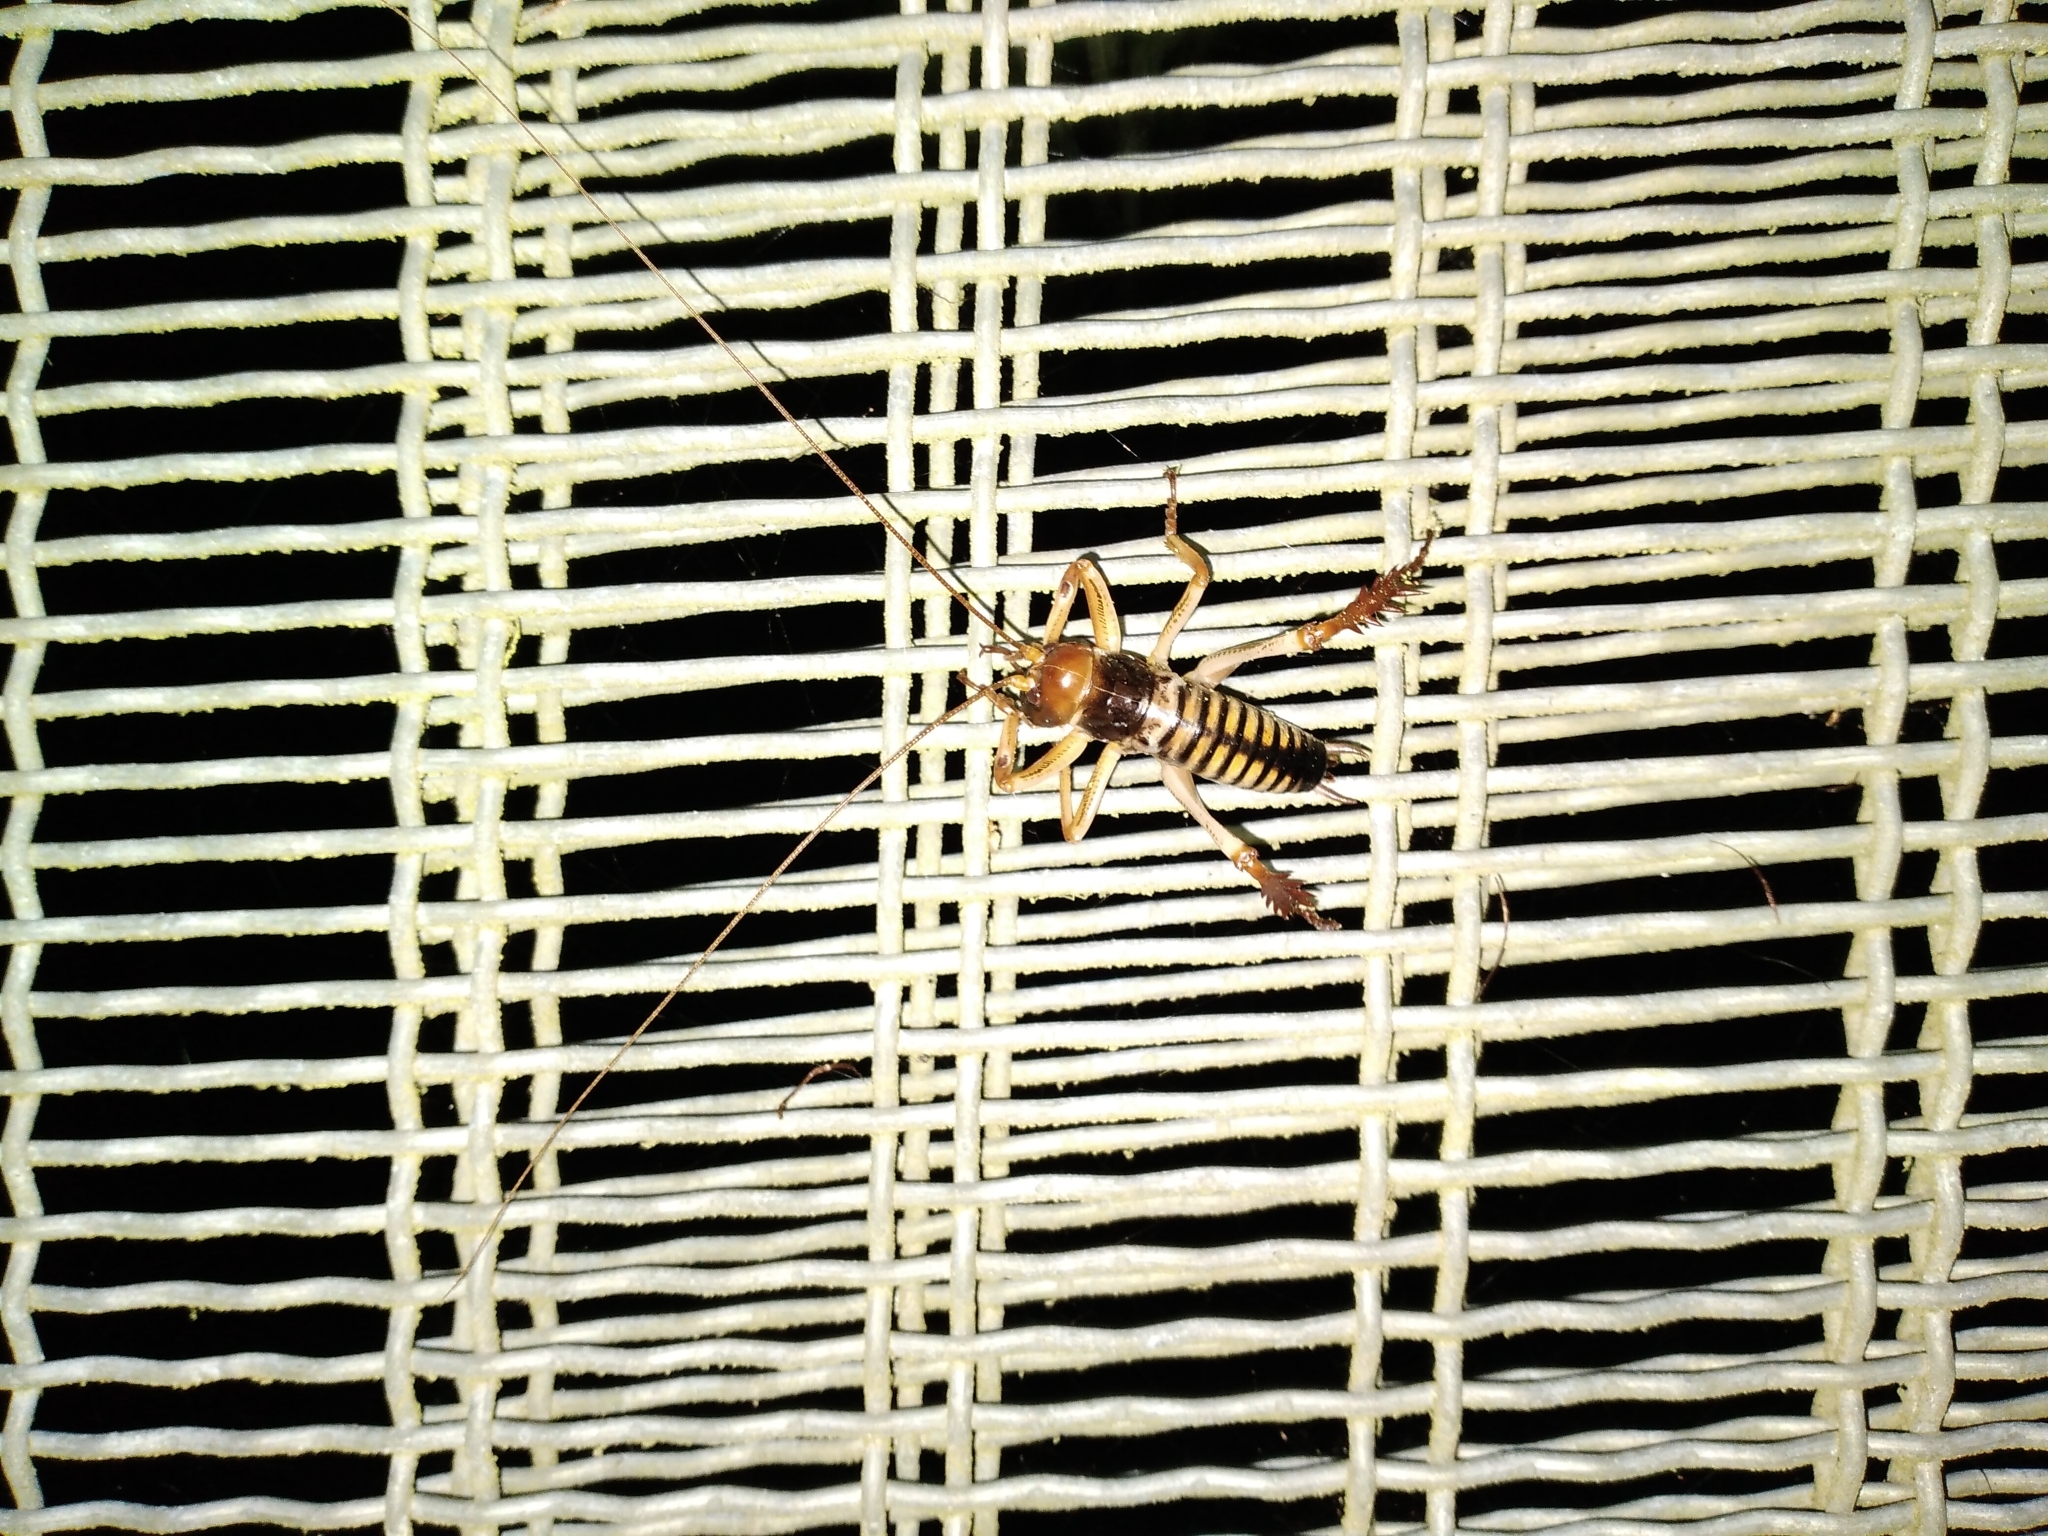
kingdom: Animalia
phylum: Arthropoda
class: Insecta
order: Orthoptera
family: Anostostomatidae
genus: Hemideina
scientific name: Hemideina crassidens
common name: Wellington tree weta
